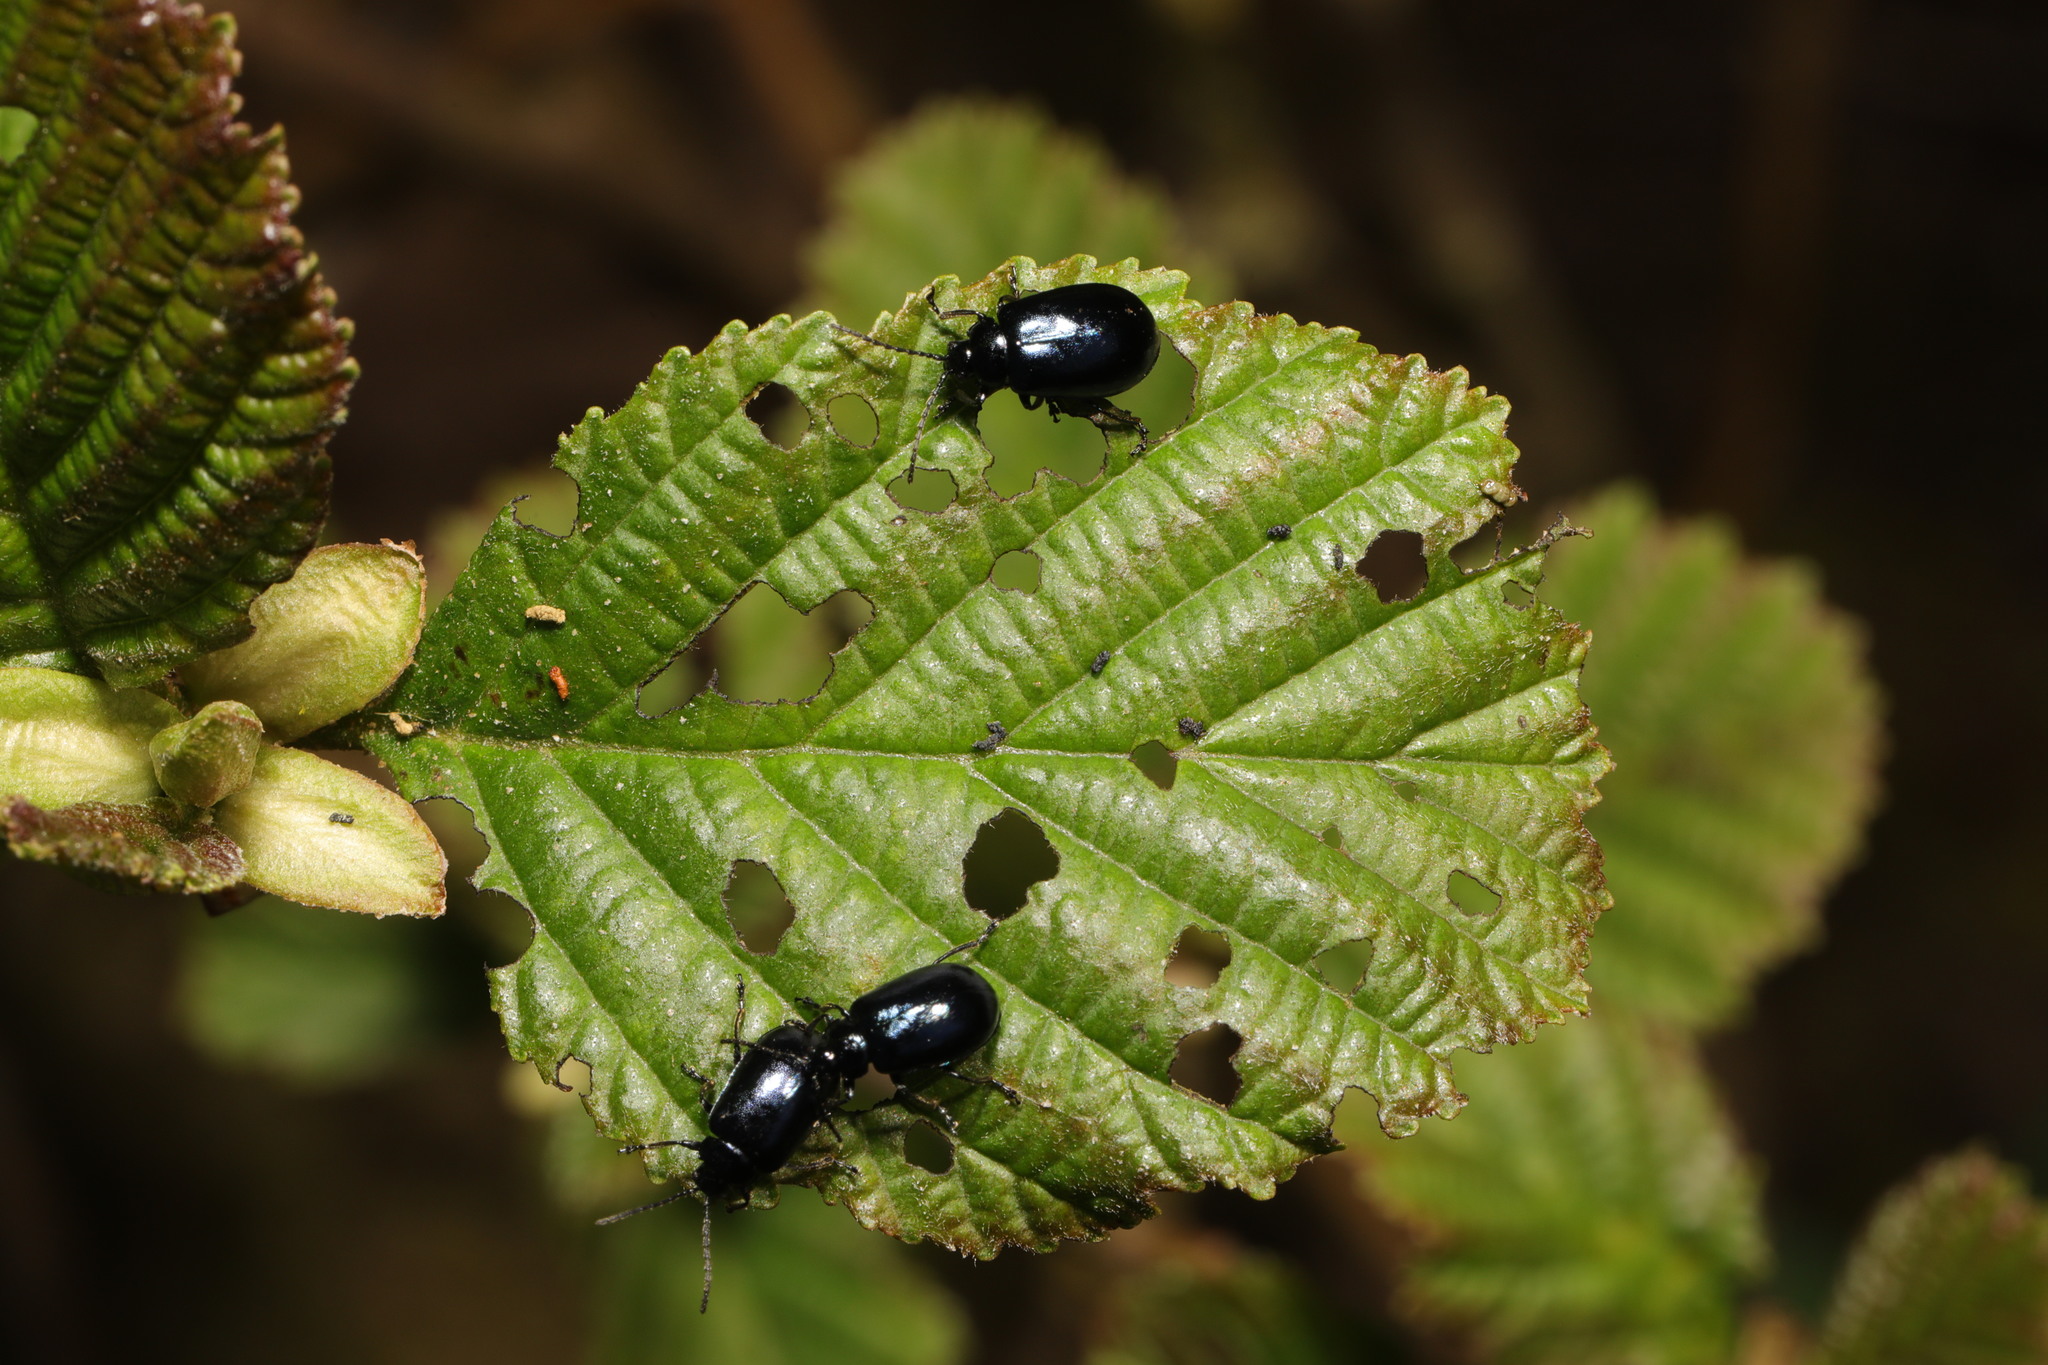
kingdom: Animalia
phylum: Arthropoda
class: Insecta
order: Coleoptera
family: Chrysomelidae
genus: Agelastica
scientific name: Agelastica alni
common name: Alder leaf beetle
